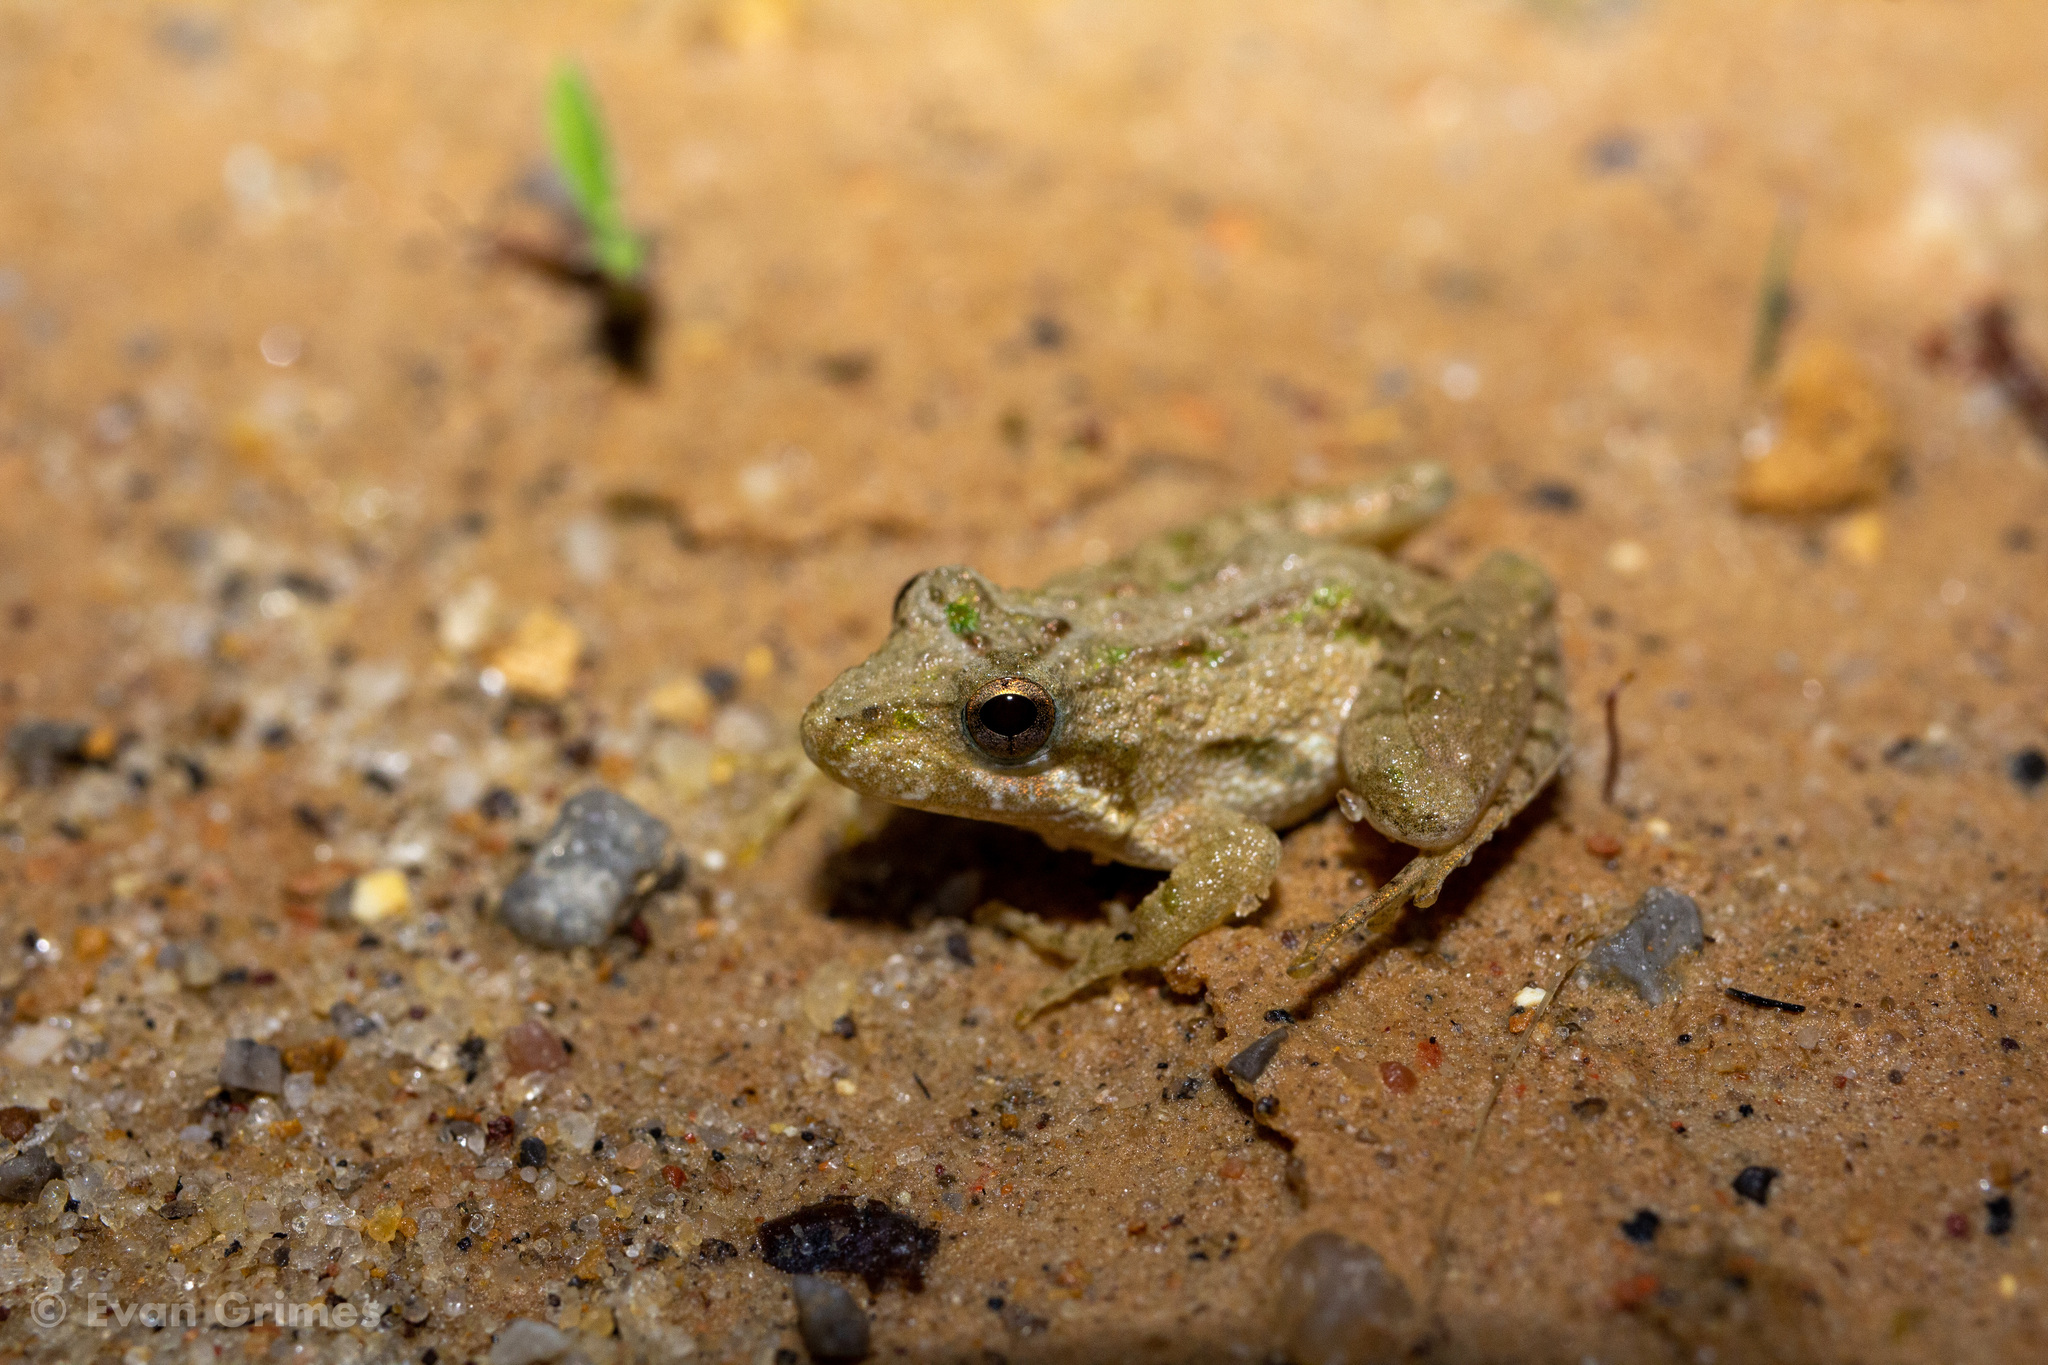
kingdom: Animalia
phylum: Chordata
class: Amphibia
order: Anura
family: Hylidae
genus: Acris
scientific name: Acris gryllus
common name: Southern cricket frog
